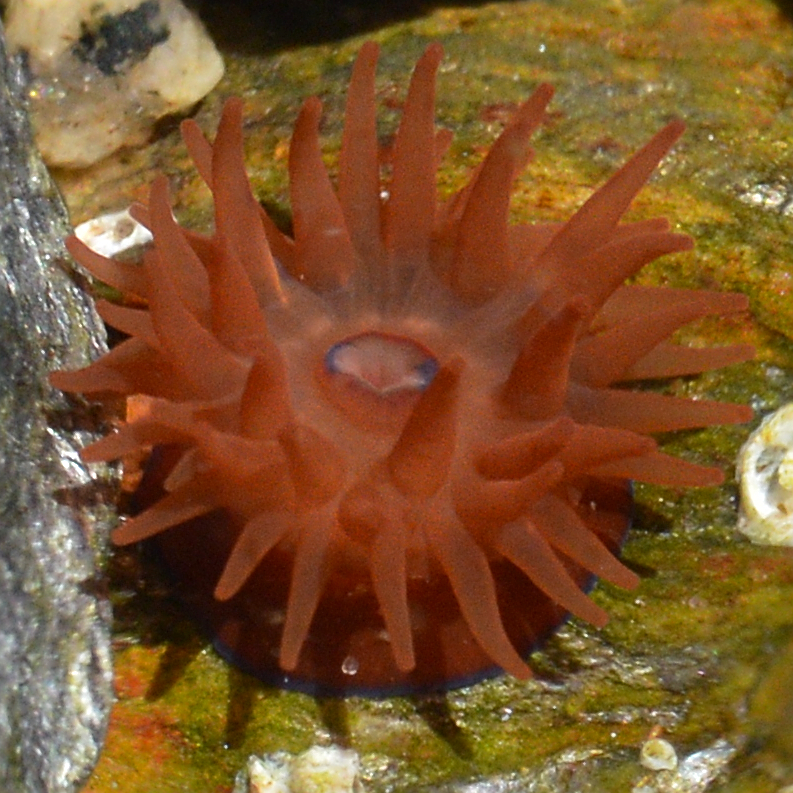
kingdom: Animalia
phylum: Cnidaria
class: Anthozoa
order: Actiniaria
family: Actiniidae
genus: Actinia
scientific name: Actinia equina
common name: Beadlet anemone
